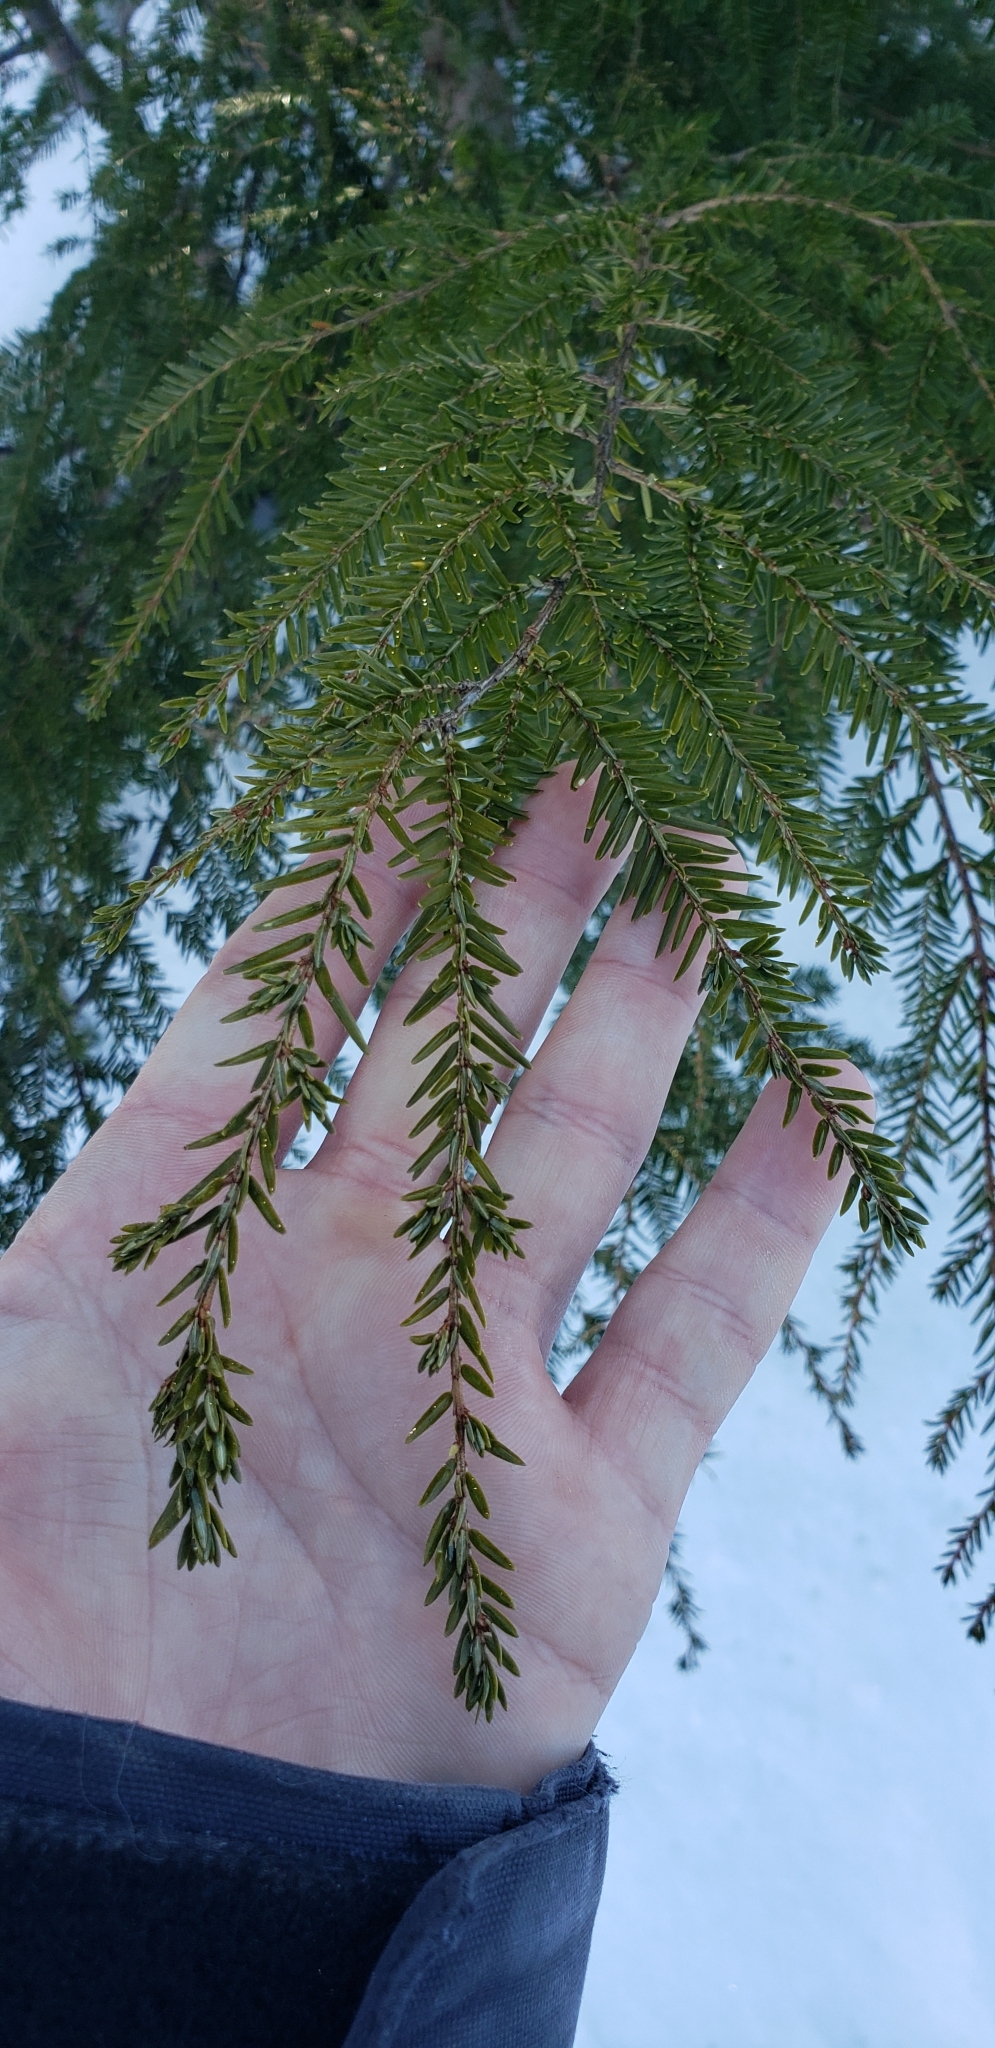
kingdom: Plantae
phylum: Tracheophyta
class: Pinopsida
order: Pinales
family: Pinaceae
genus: Tsuga
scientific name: Tsuga canadensis
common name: Eastern hemlock
